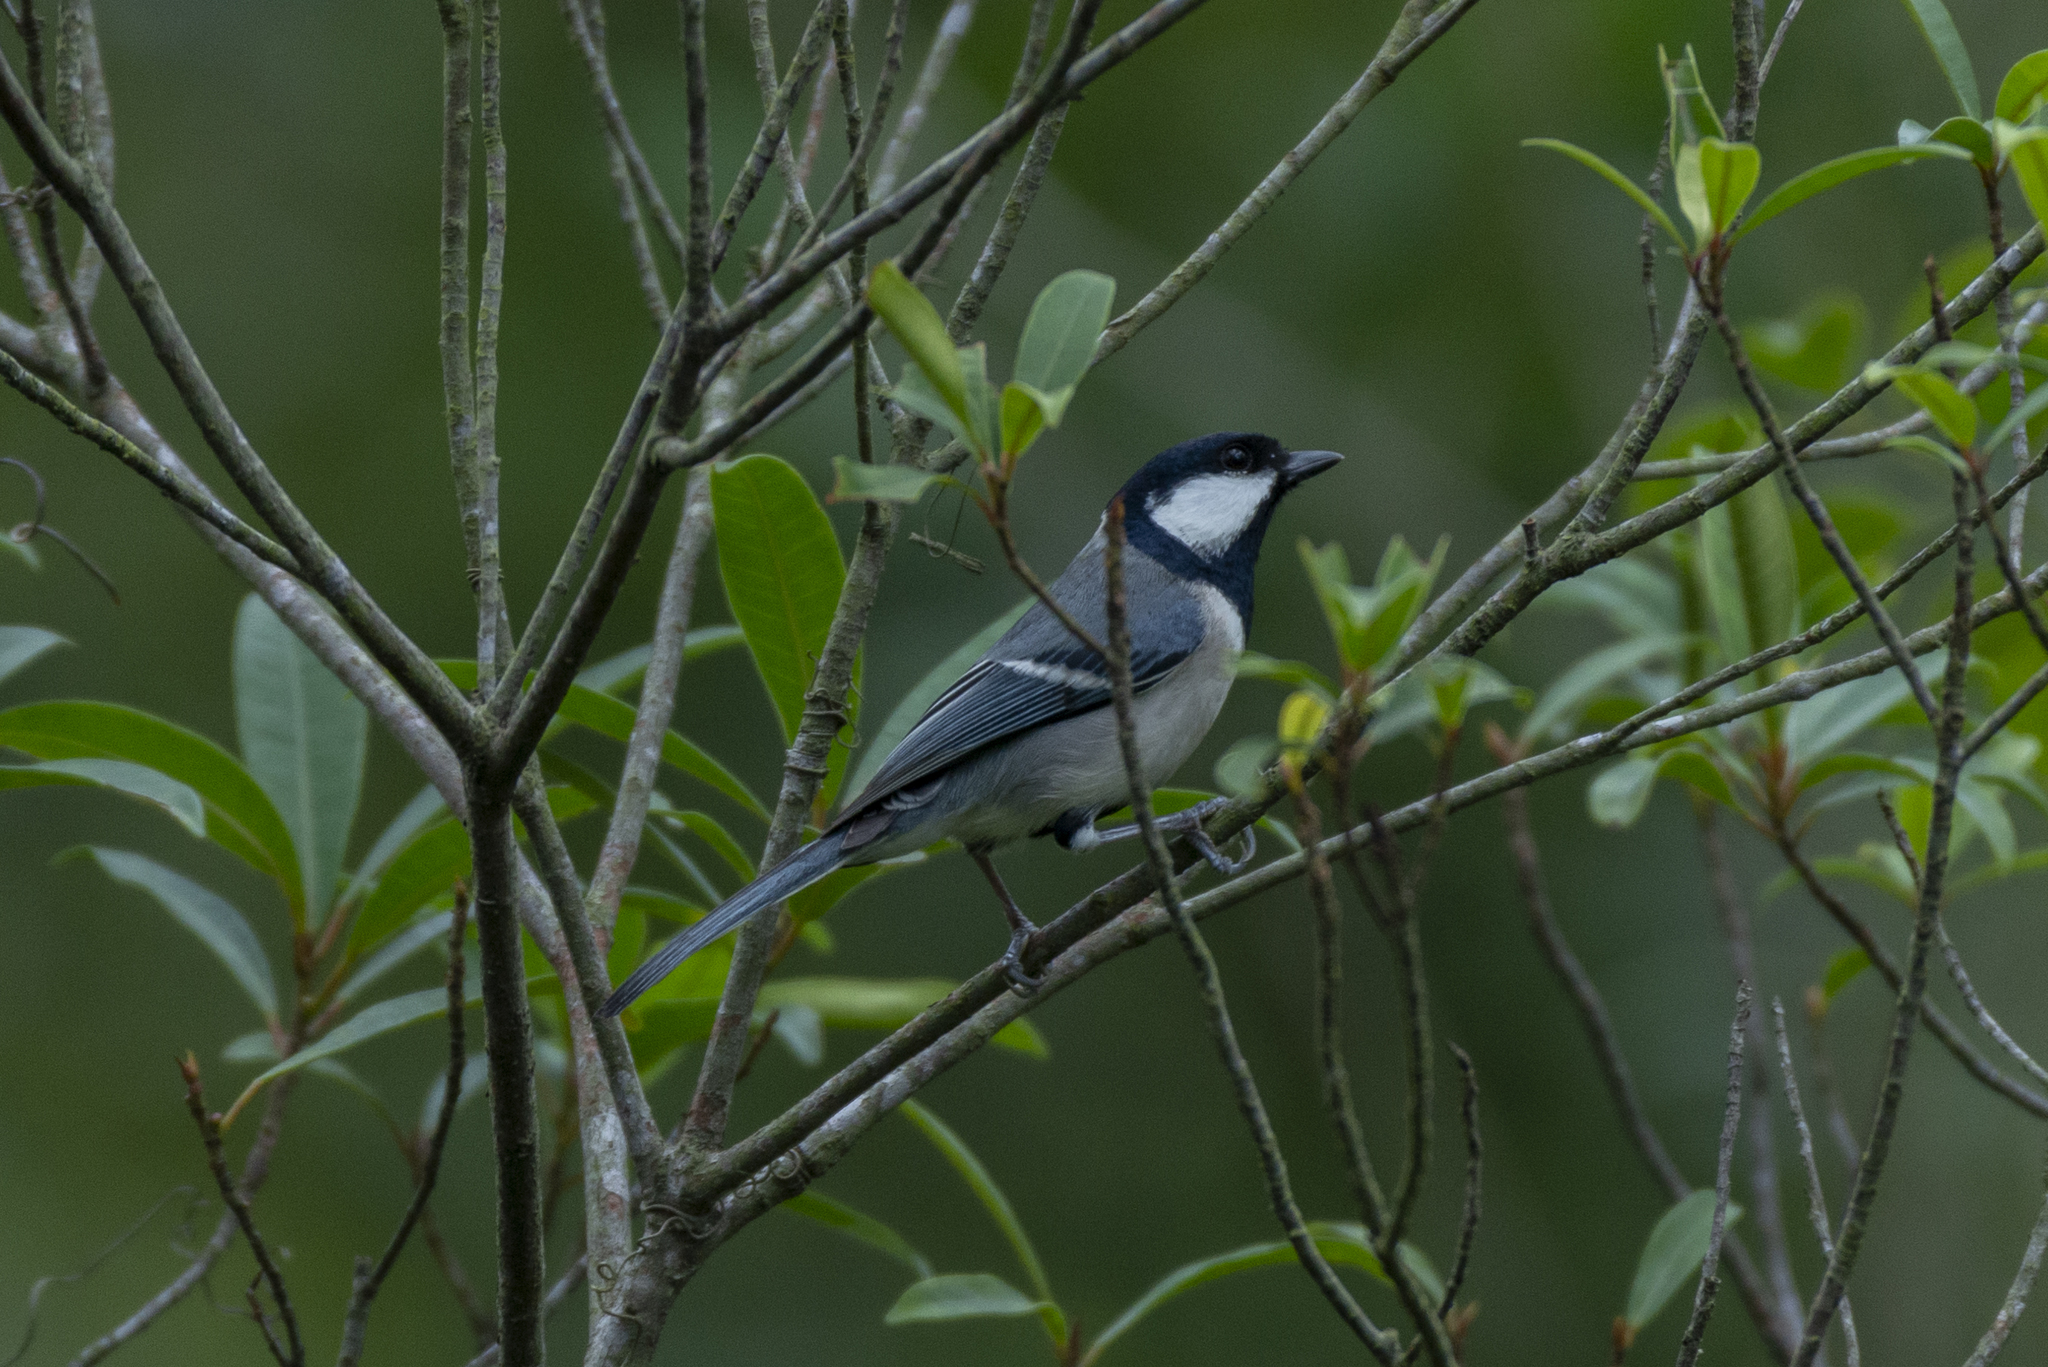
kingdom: Animalia
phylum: Chordata
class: Aves
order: Passeriformes
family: Paridae
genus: Parus
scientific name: Parus minor
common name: Japanese tit
